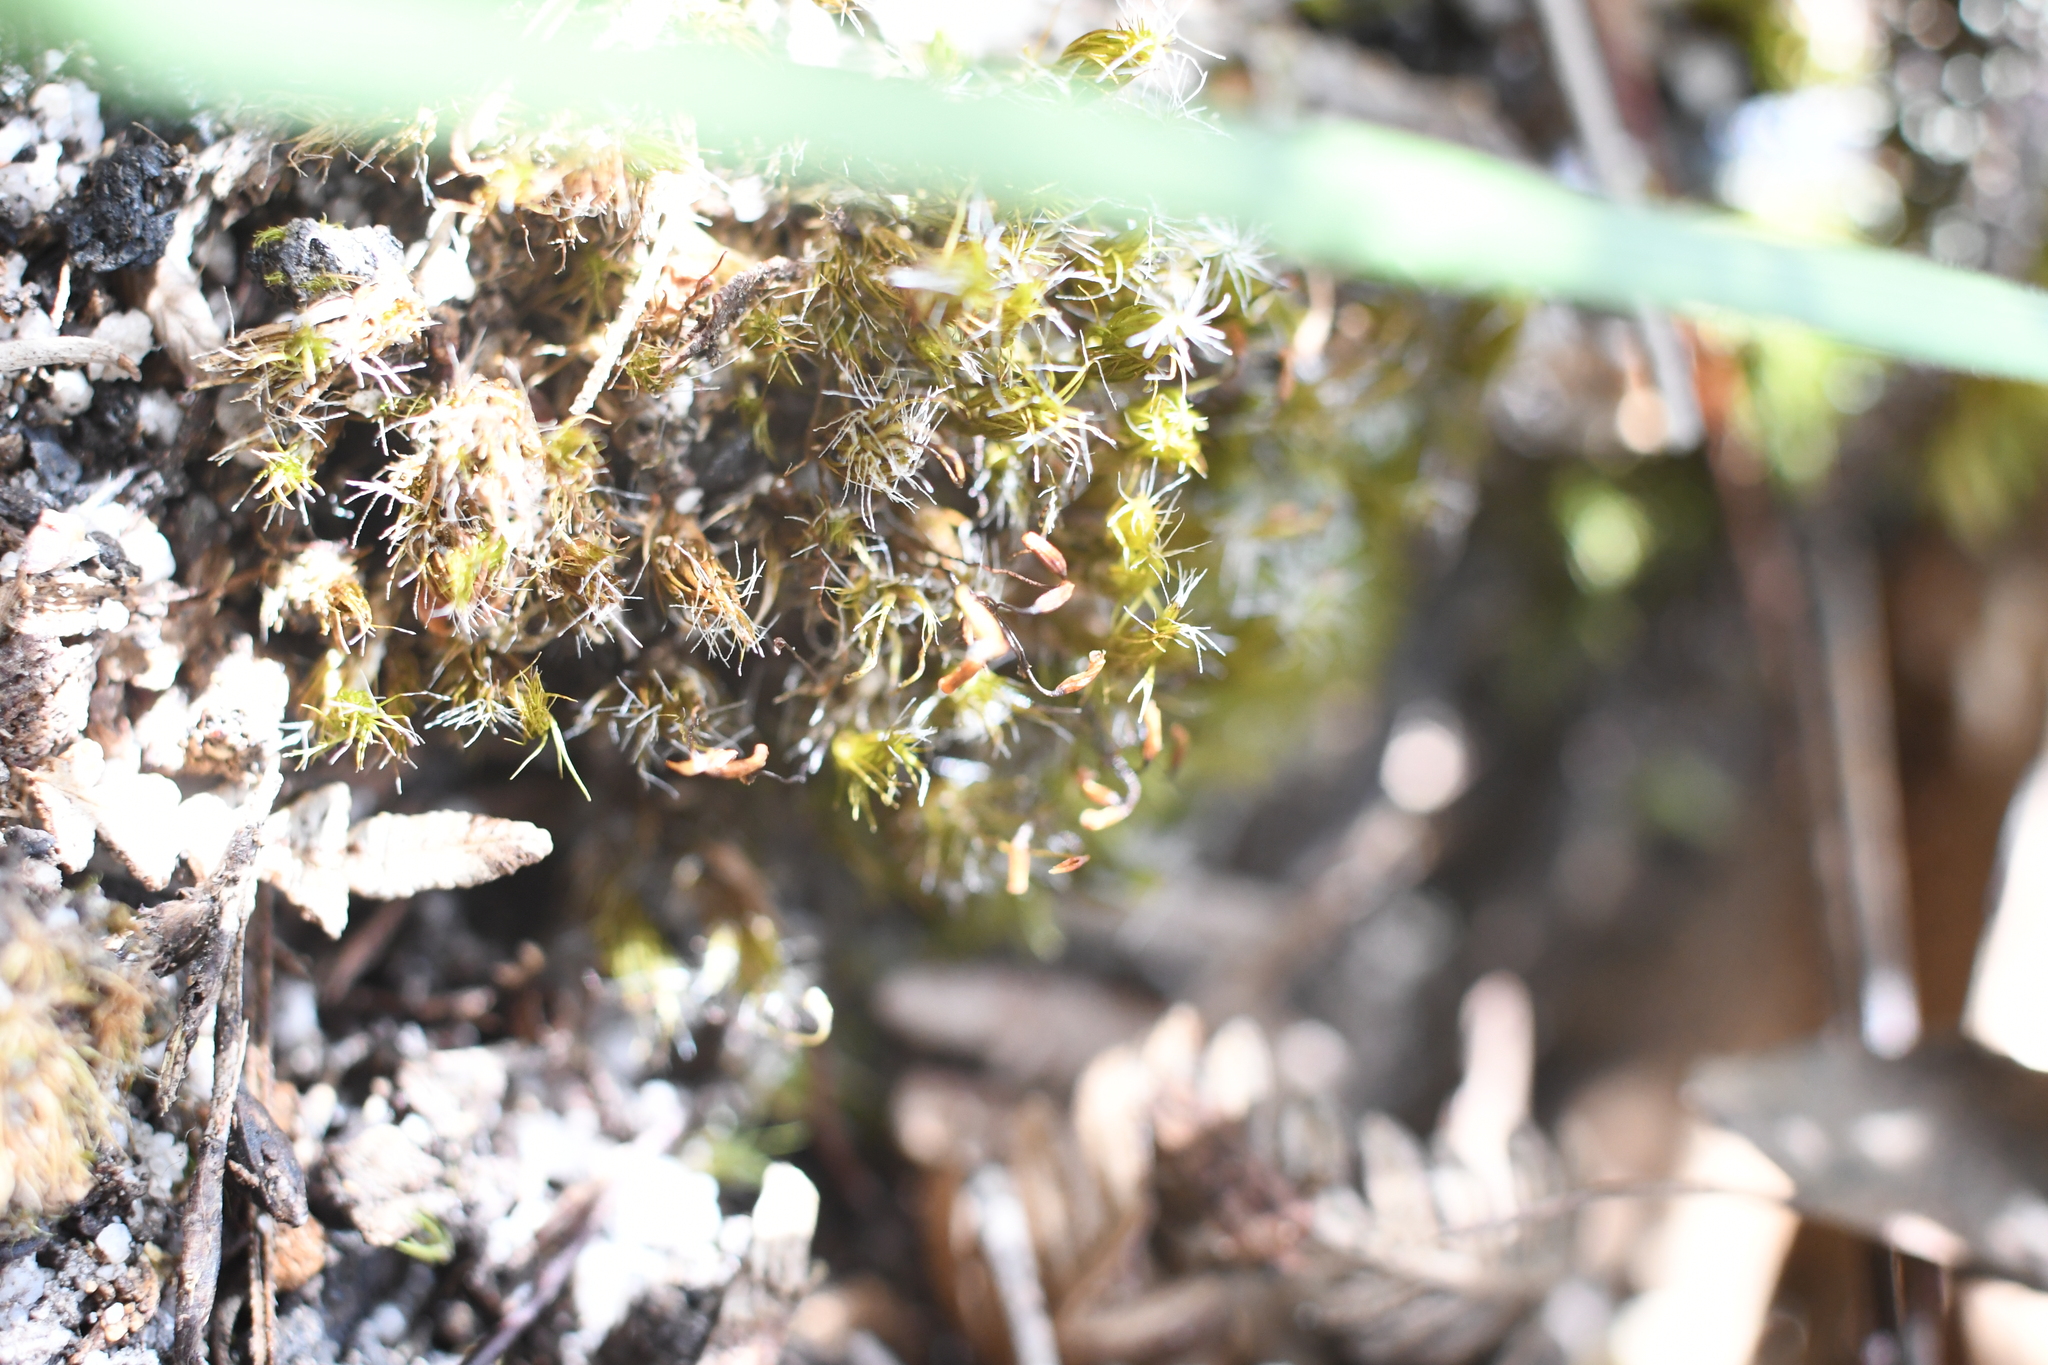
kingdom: Plantae
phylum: Bryophyta
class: Bryopsida
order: Dicranales
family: Leucobryaceae
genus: Campylopus
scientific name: Campylopus introflexus
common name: Heath star moss
